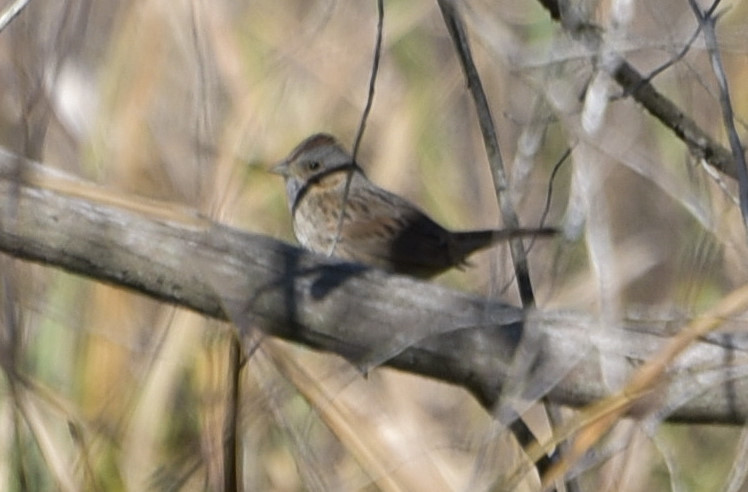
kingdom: Animalia
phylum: Chordata
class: Aves
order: Passeriformes
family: Passerellidae
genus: Melospiza
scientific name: Melospiza lincolnii
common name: Lincoln's sparrow
